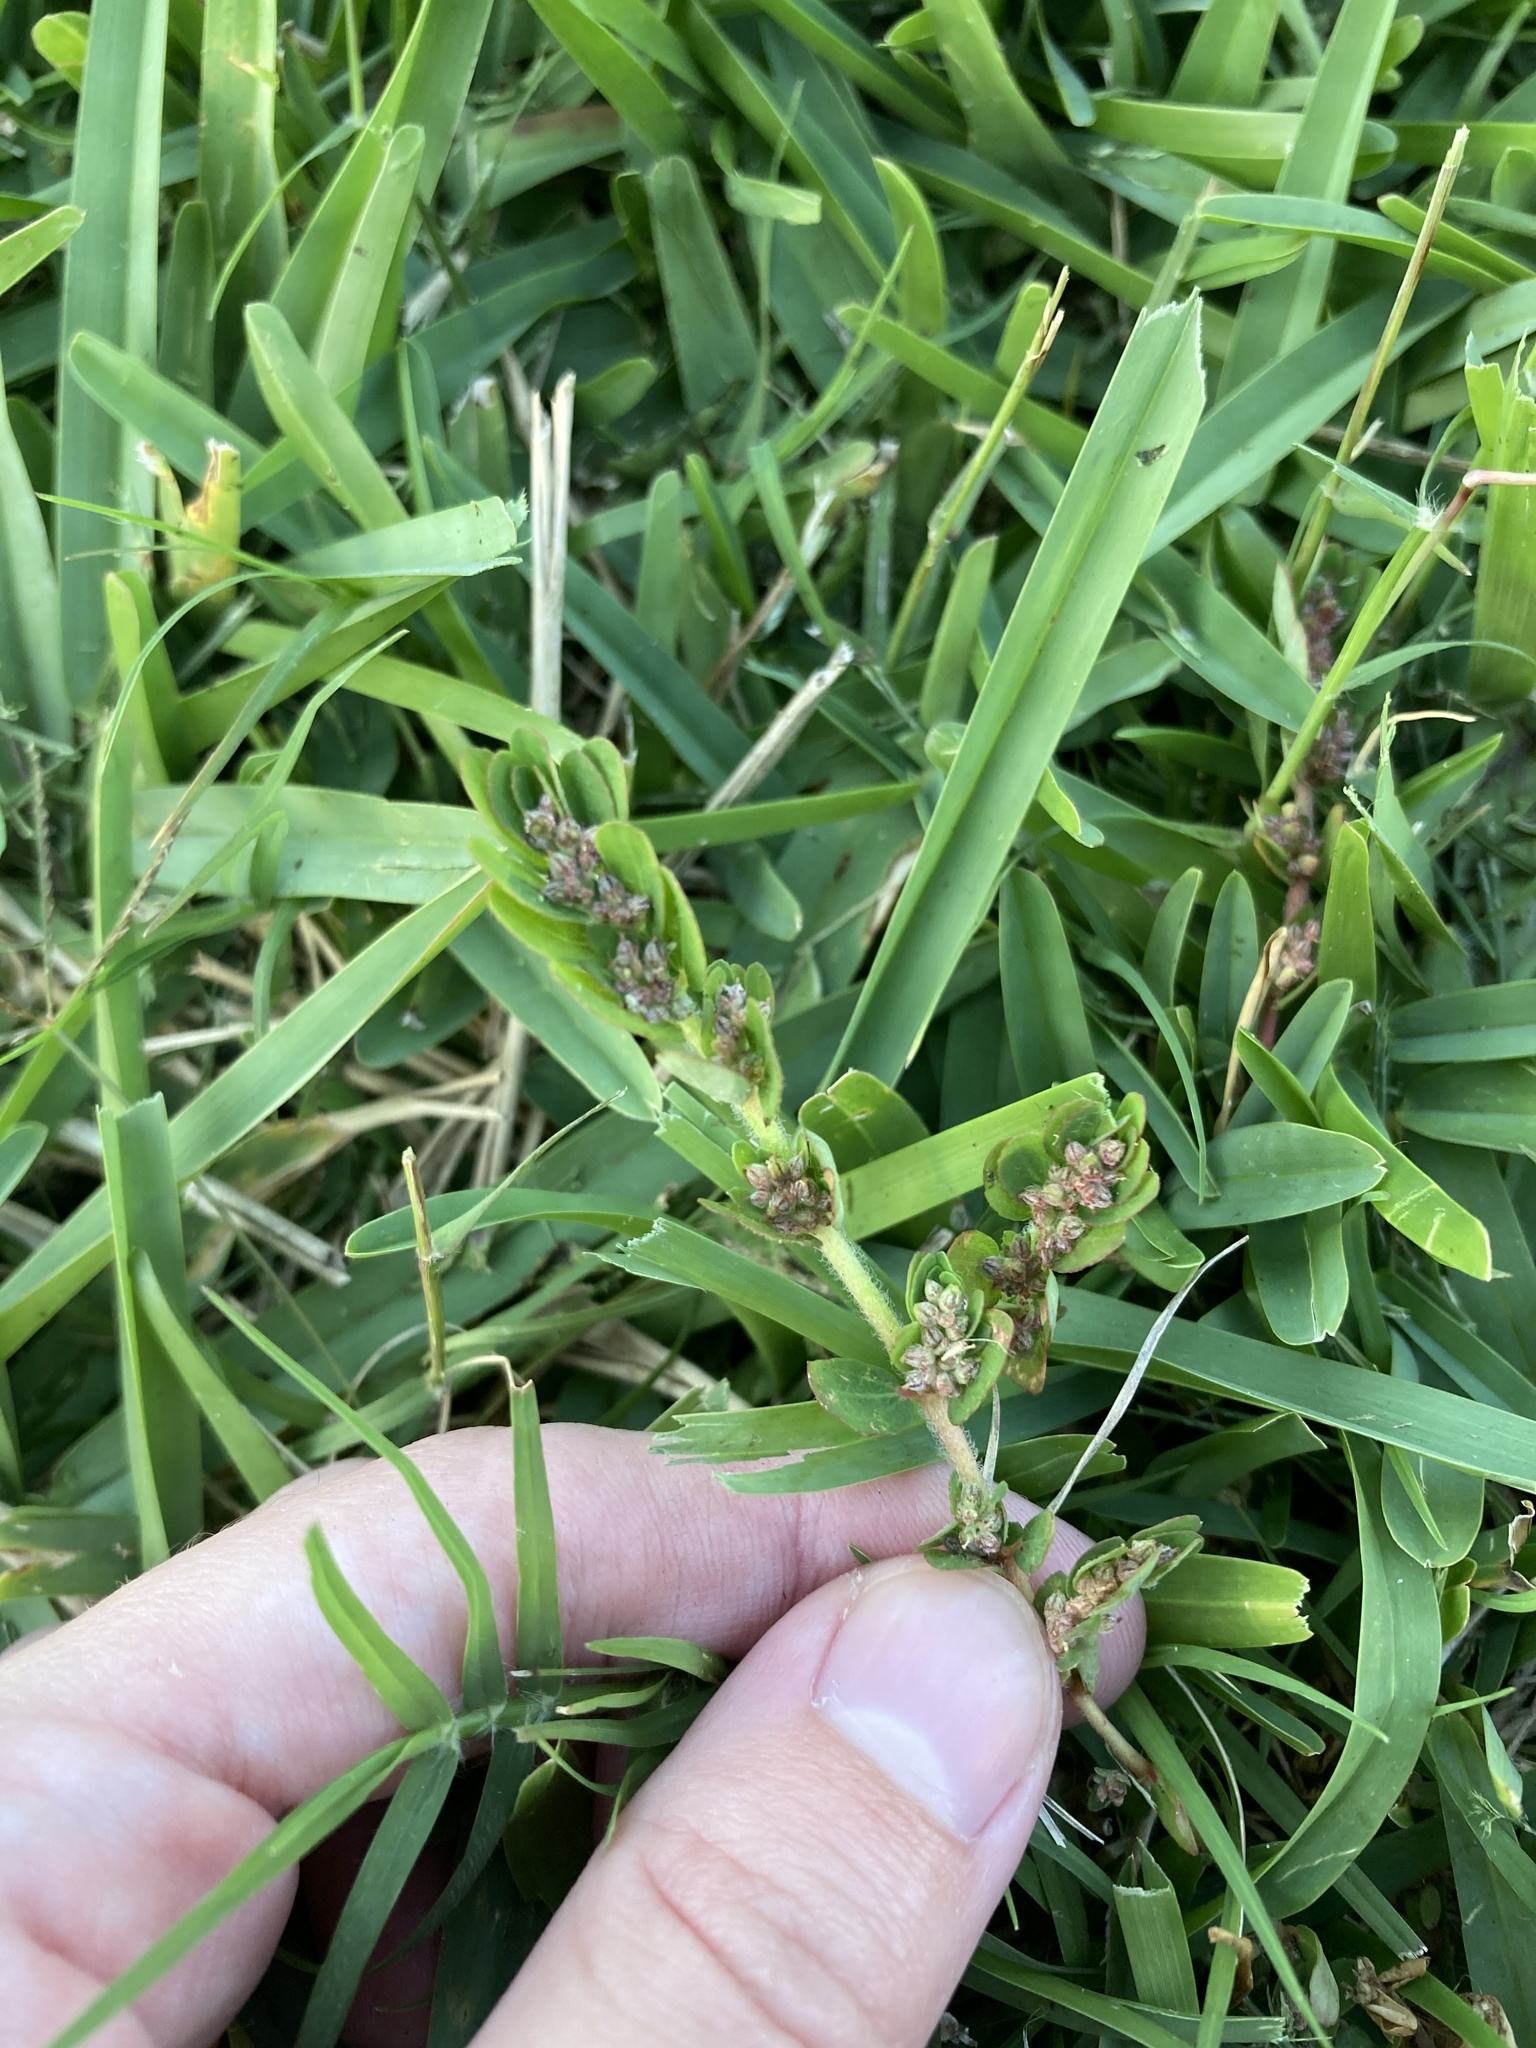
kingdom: Plantae
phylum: Tracheophyta
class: Magnoliopsida
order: Malpighiales
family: Euphorbiaceae
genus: Euphorbia
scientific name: Euphorbia thymifolia
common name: Gulf sandmat
